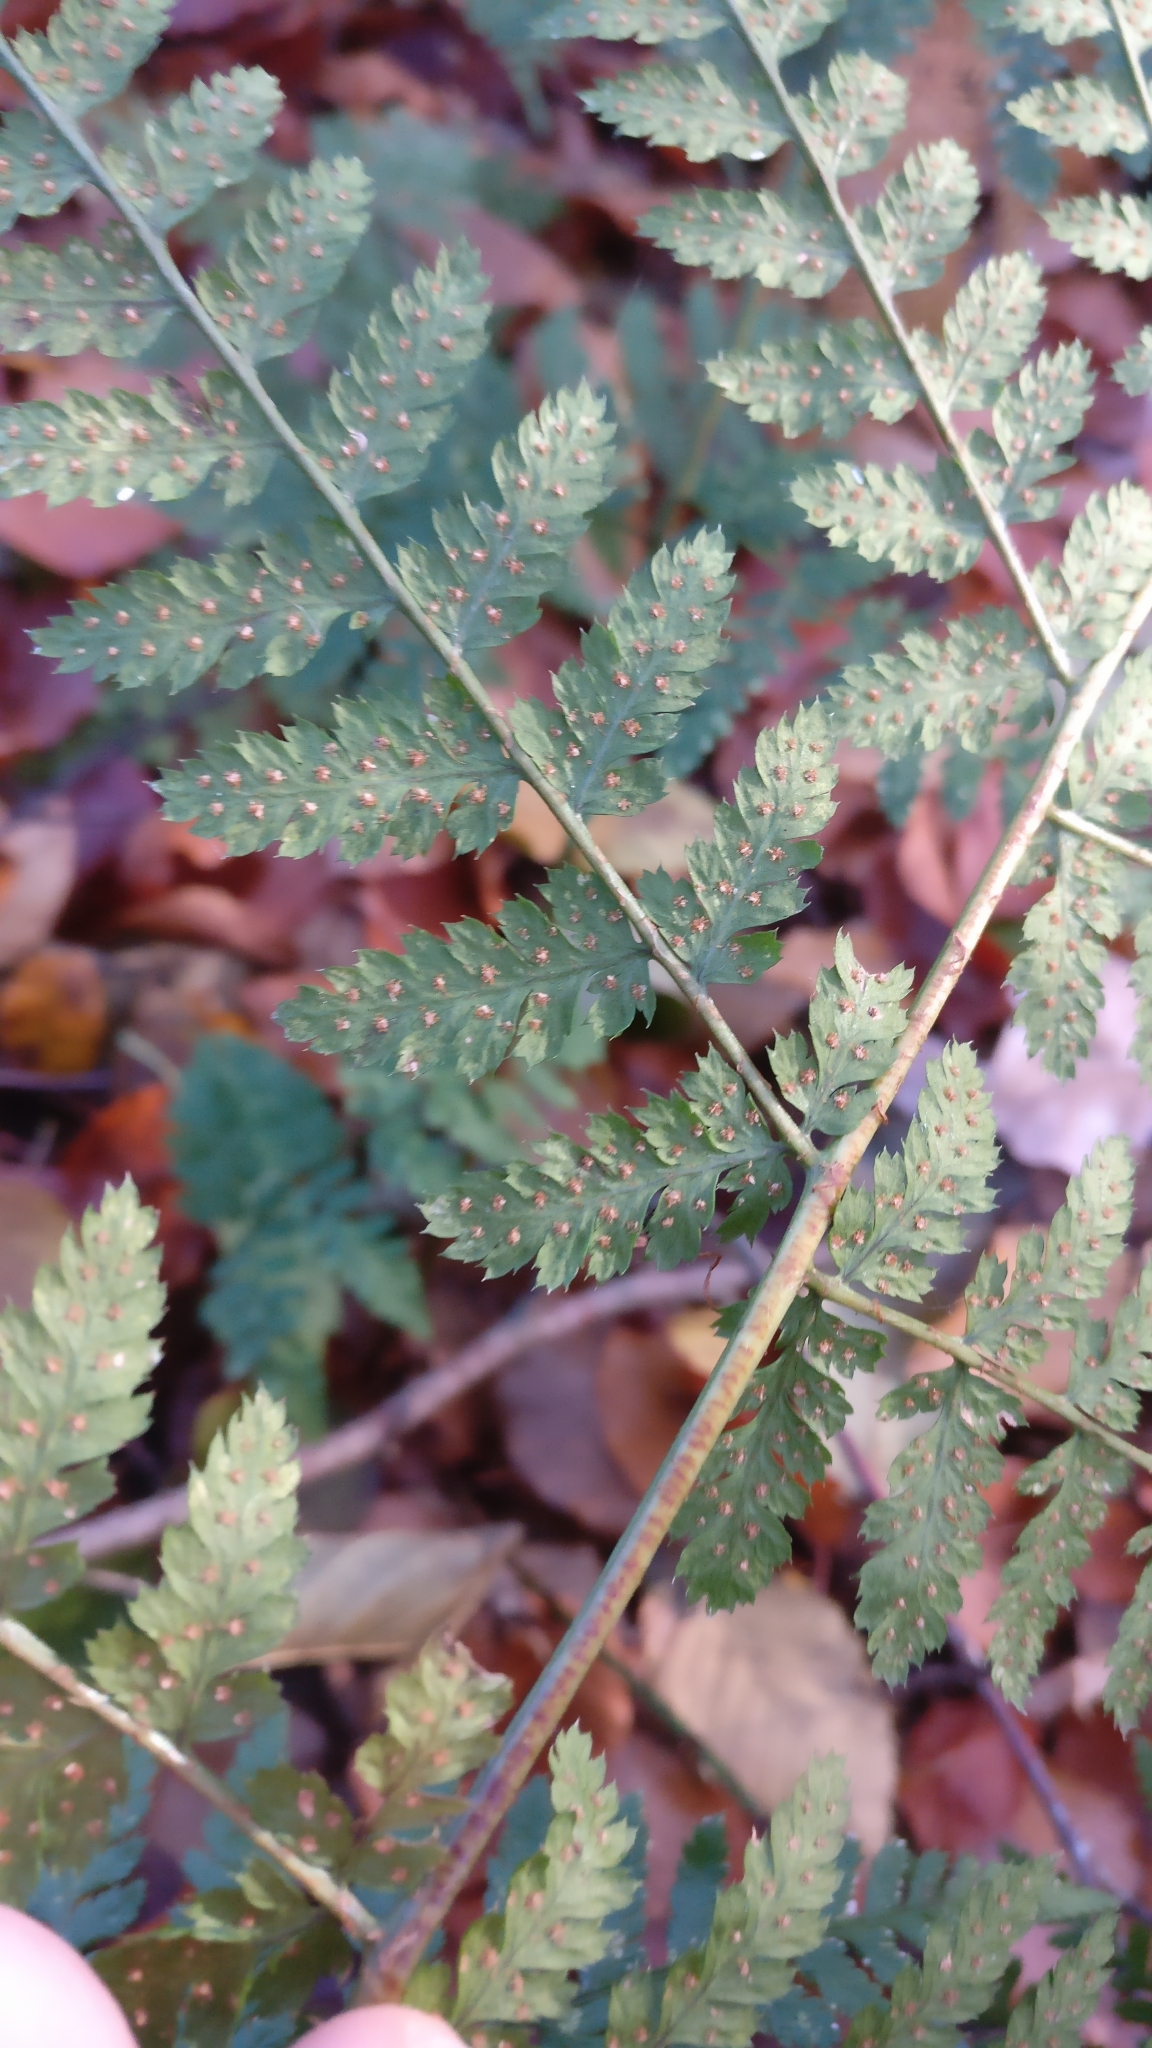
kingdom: Plantae
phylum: Tracheophyta
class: Polypodiopsida
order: Polypodiales
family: Dryopteridaceae
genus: Dryopteris
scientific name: Dryopteris carthusiana
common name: Narrow buckler-fern
